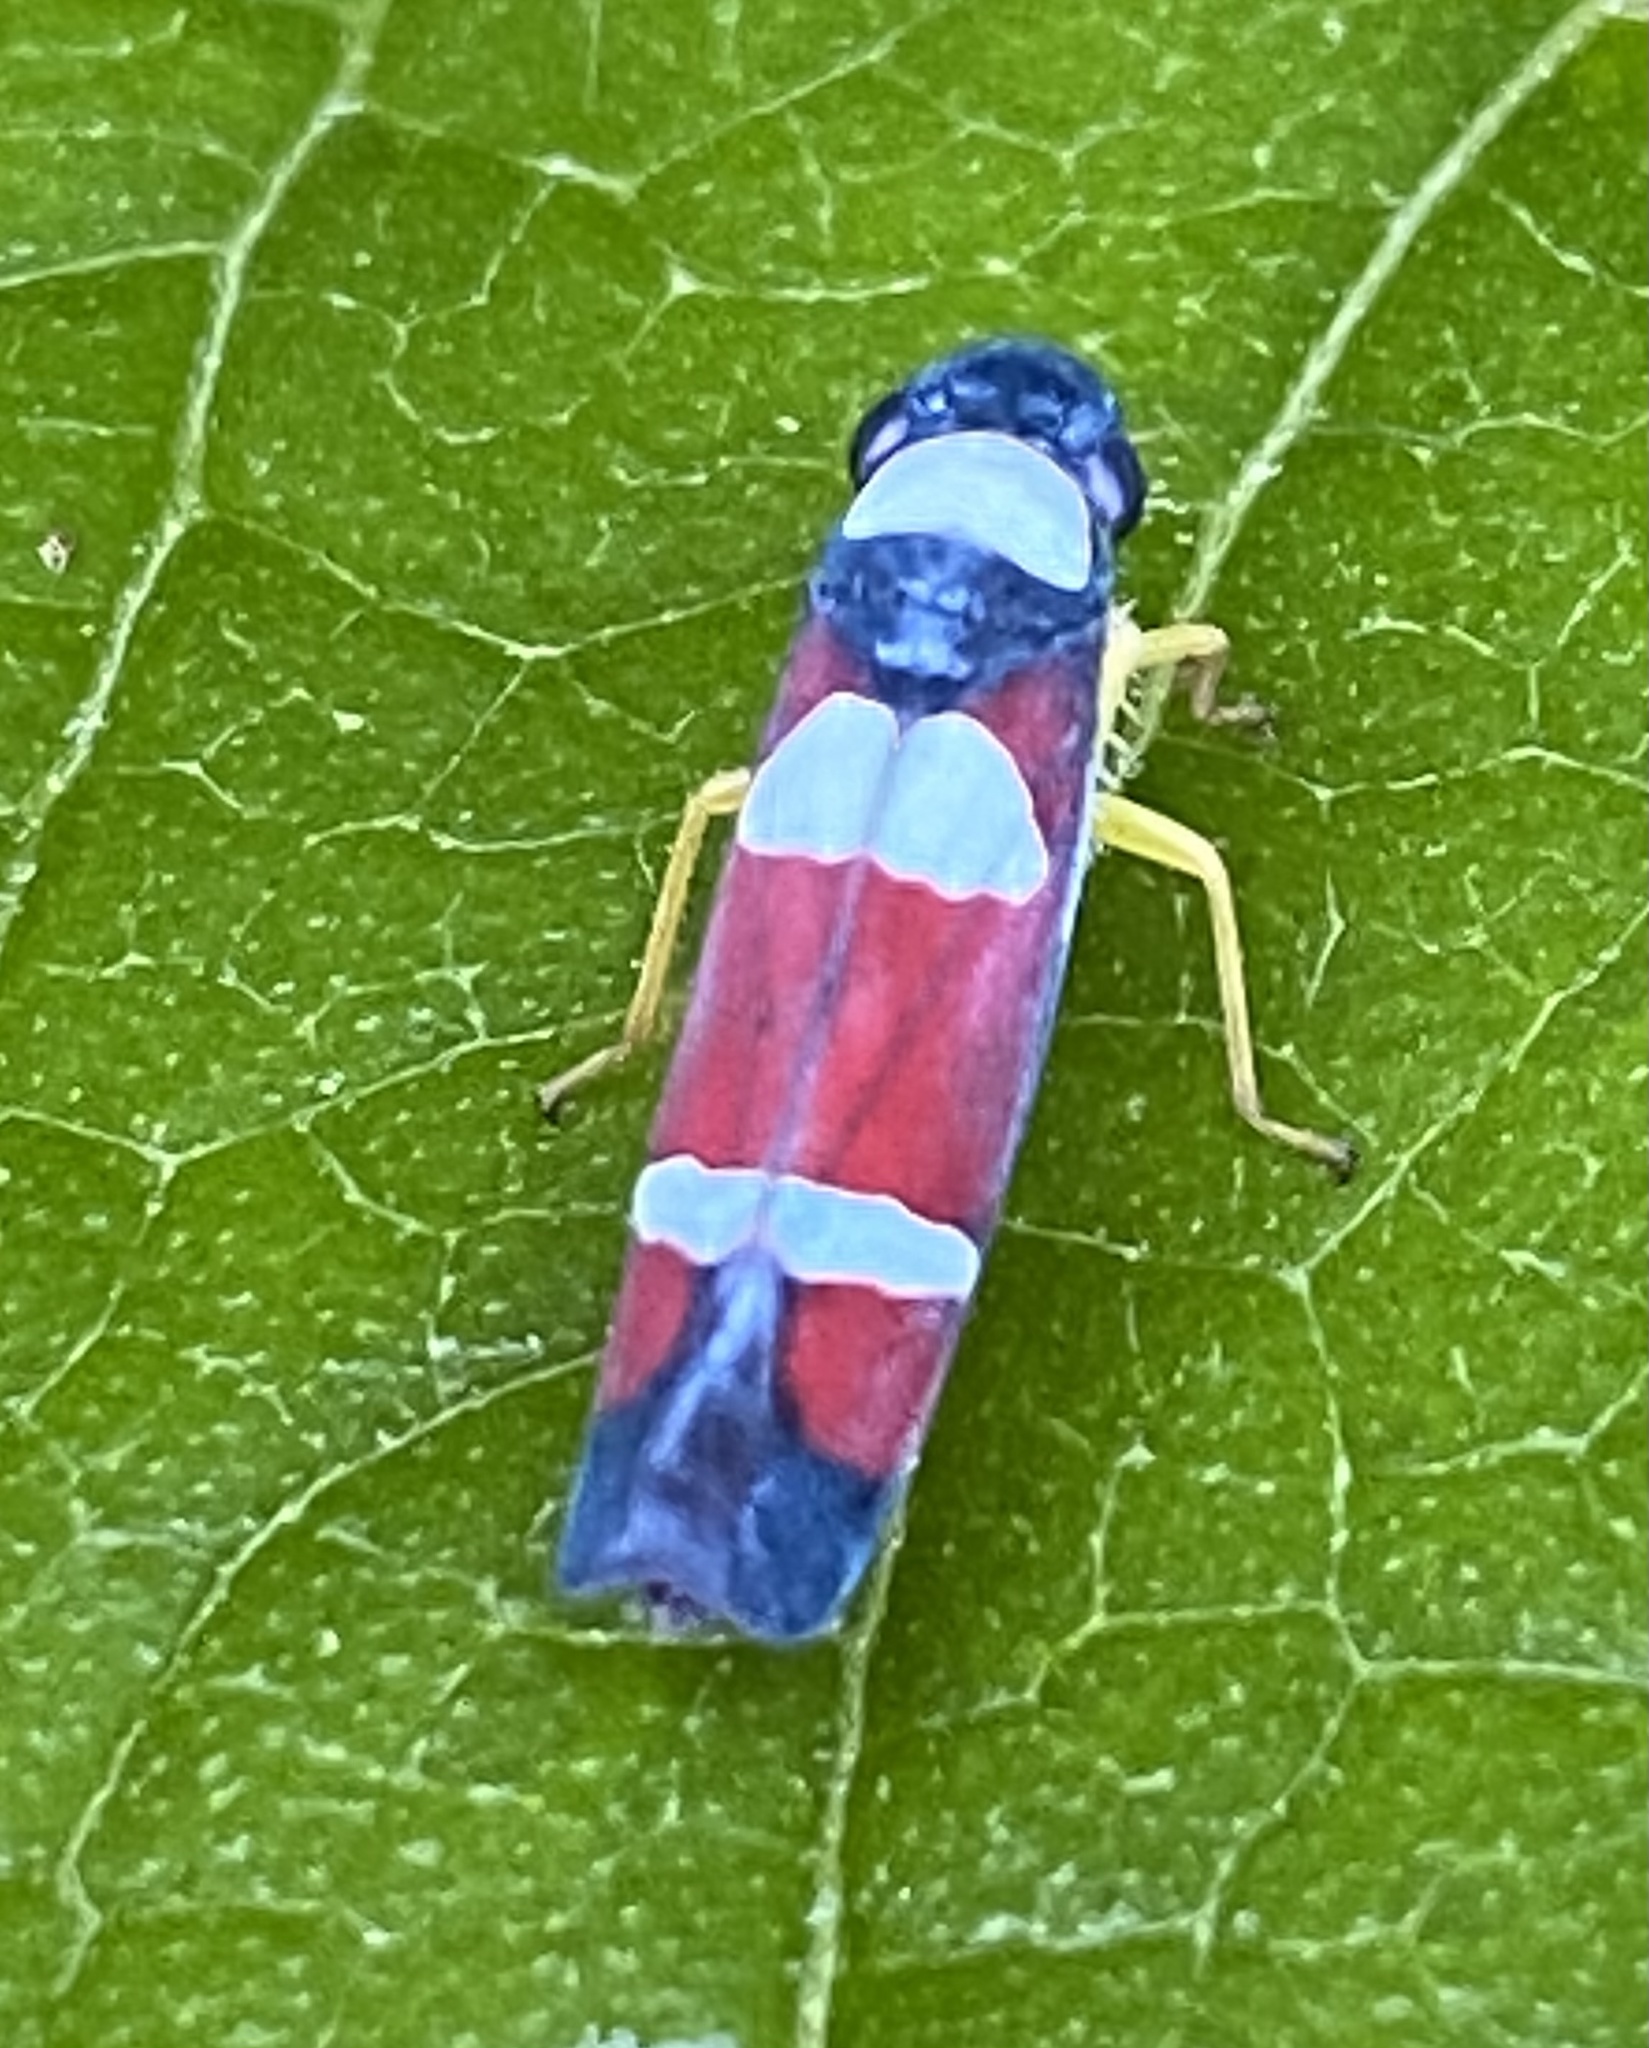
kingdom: Animalia
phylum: Arthropoda
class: Insecta
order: Hemiptera
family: Cicadellidae
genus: Erythrogonia
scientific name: Erythrogonia phoenicea
